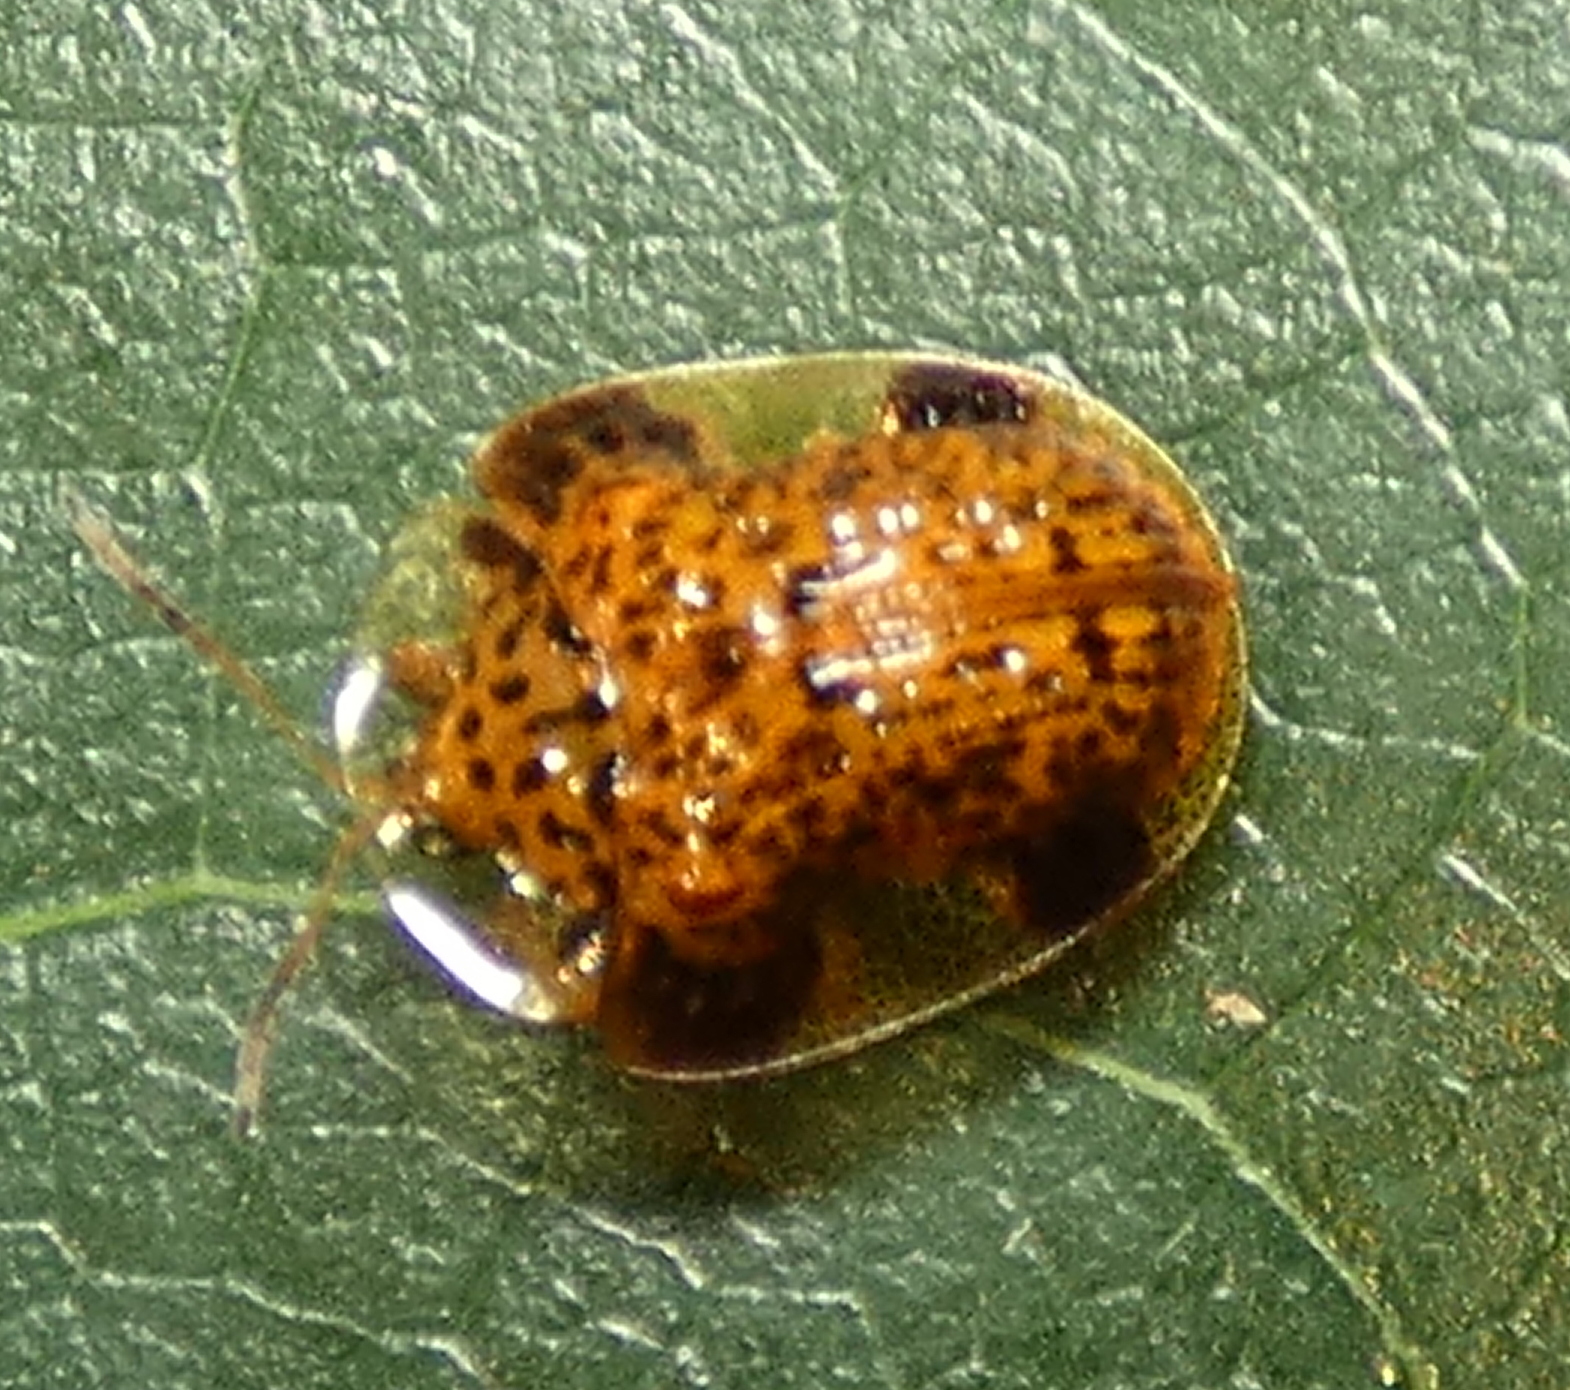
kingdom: Animalia
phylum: Arthropoda
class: Insecta
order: Coleoptera
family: Chrysomelidae
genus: Microctenochira
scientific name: Microctenochira optata
